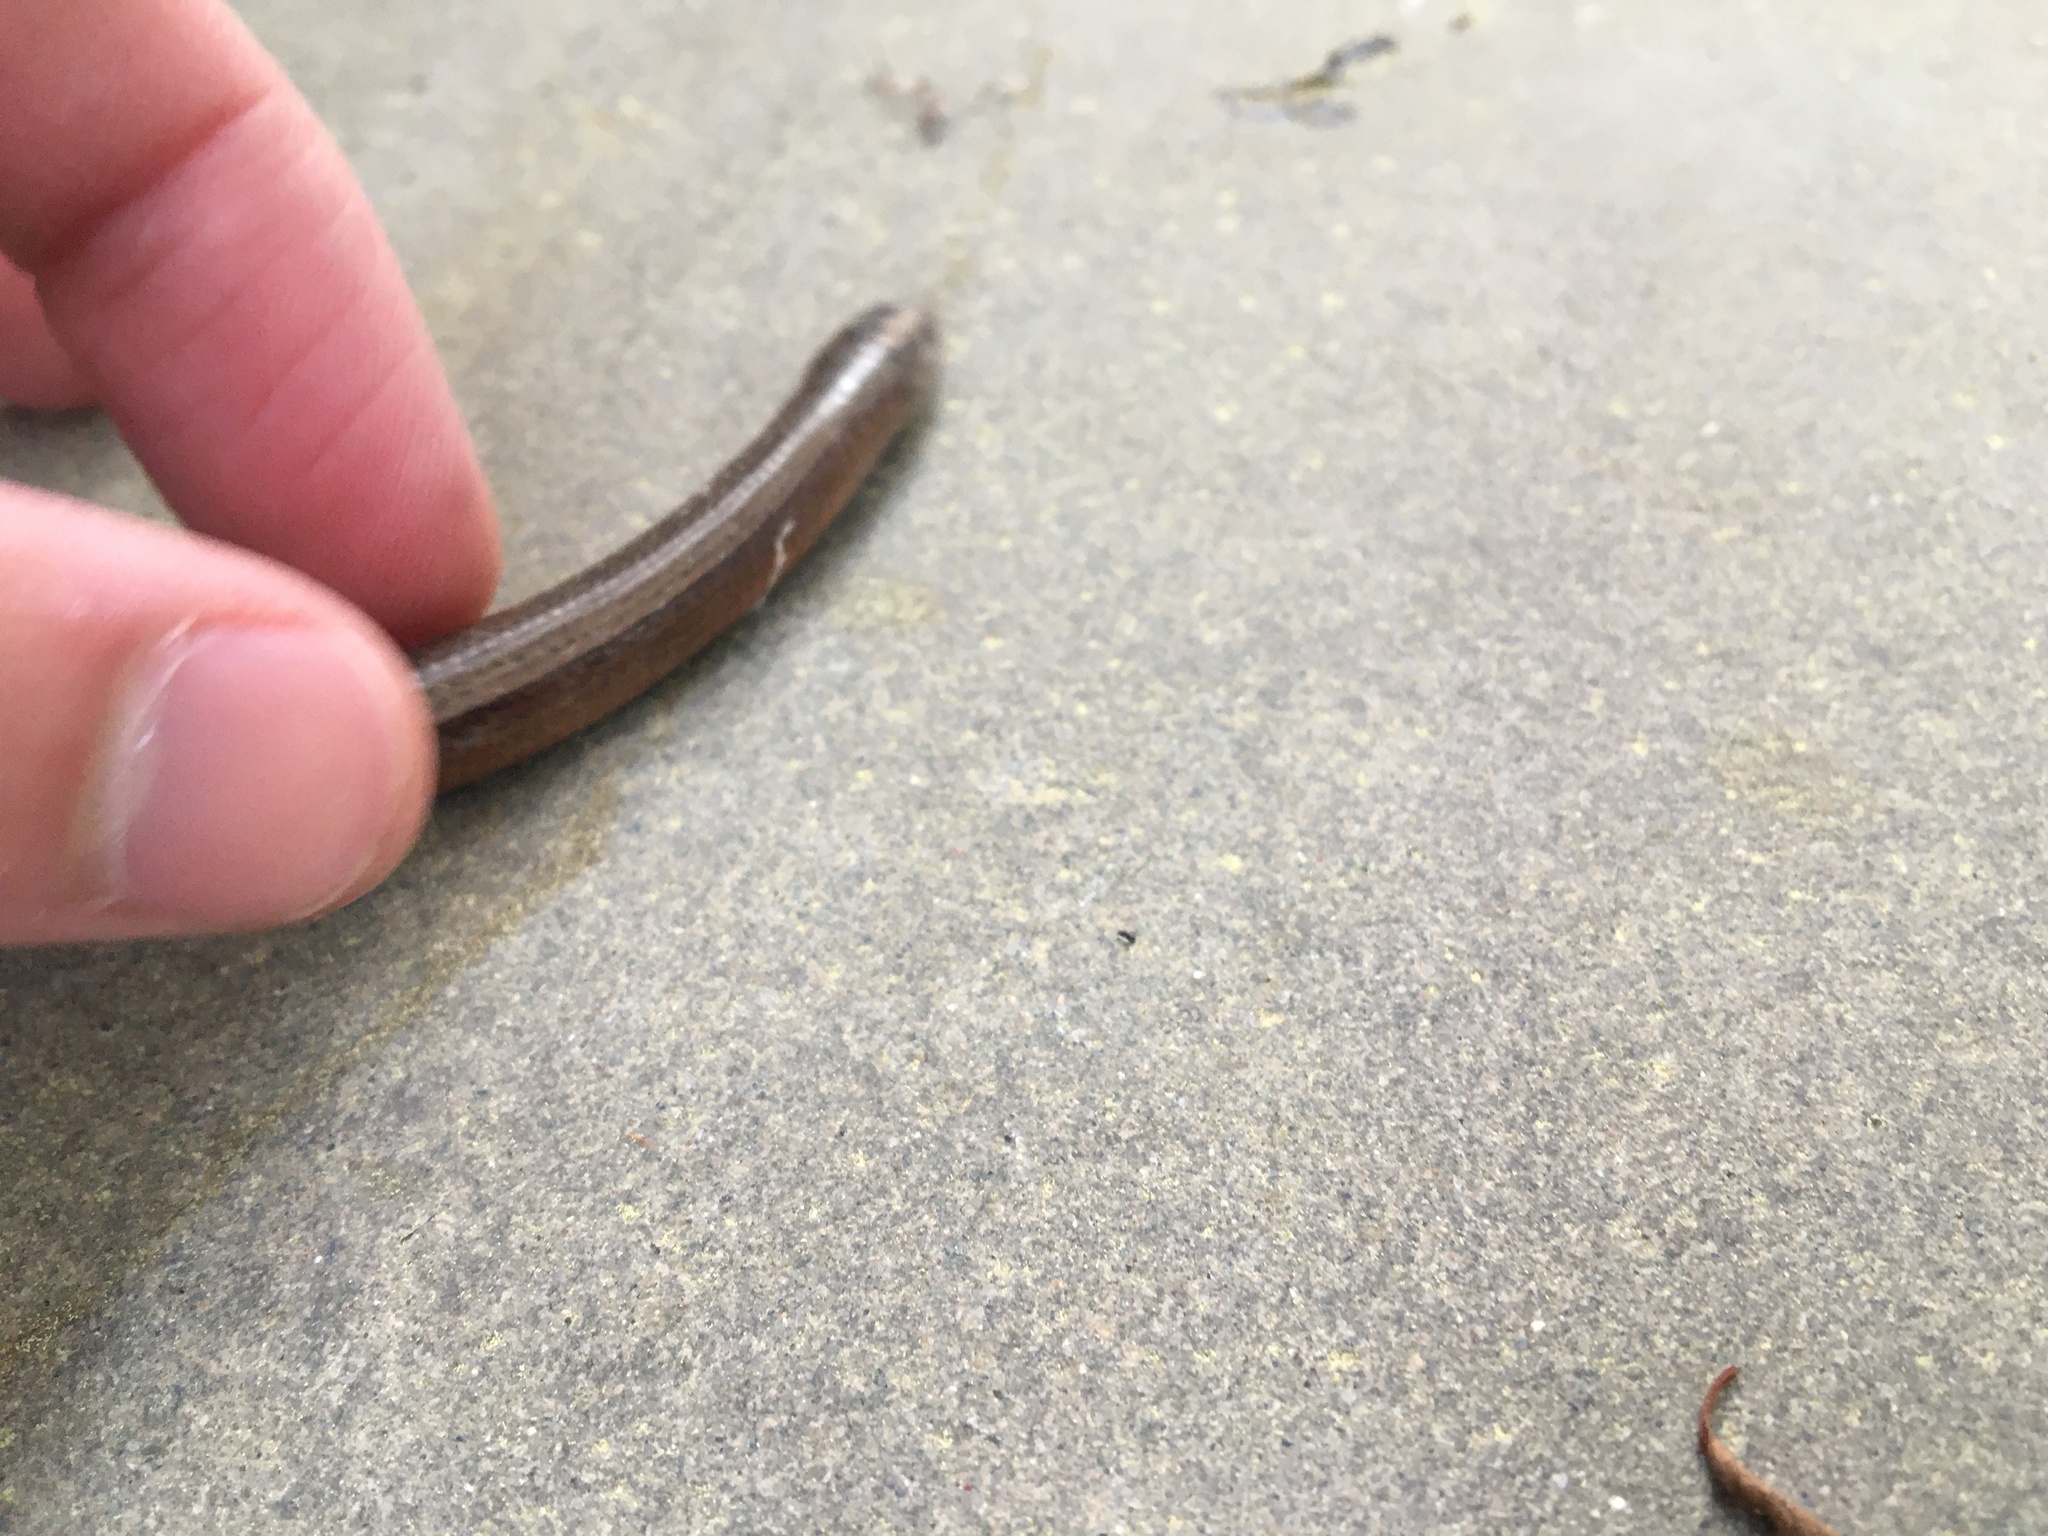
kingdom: Animalia
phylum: Chordata
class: Squamata
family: Anguidae
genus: Anguis
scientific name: Anguis fragilis
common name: Slow worm
